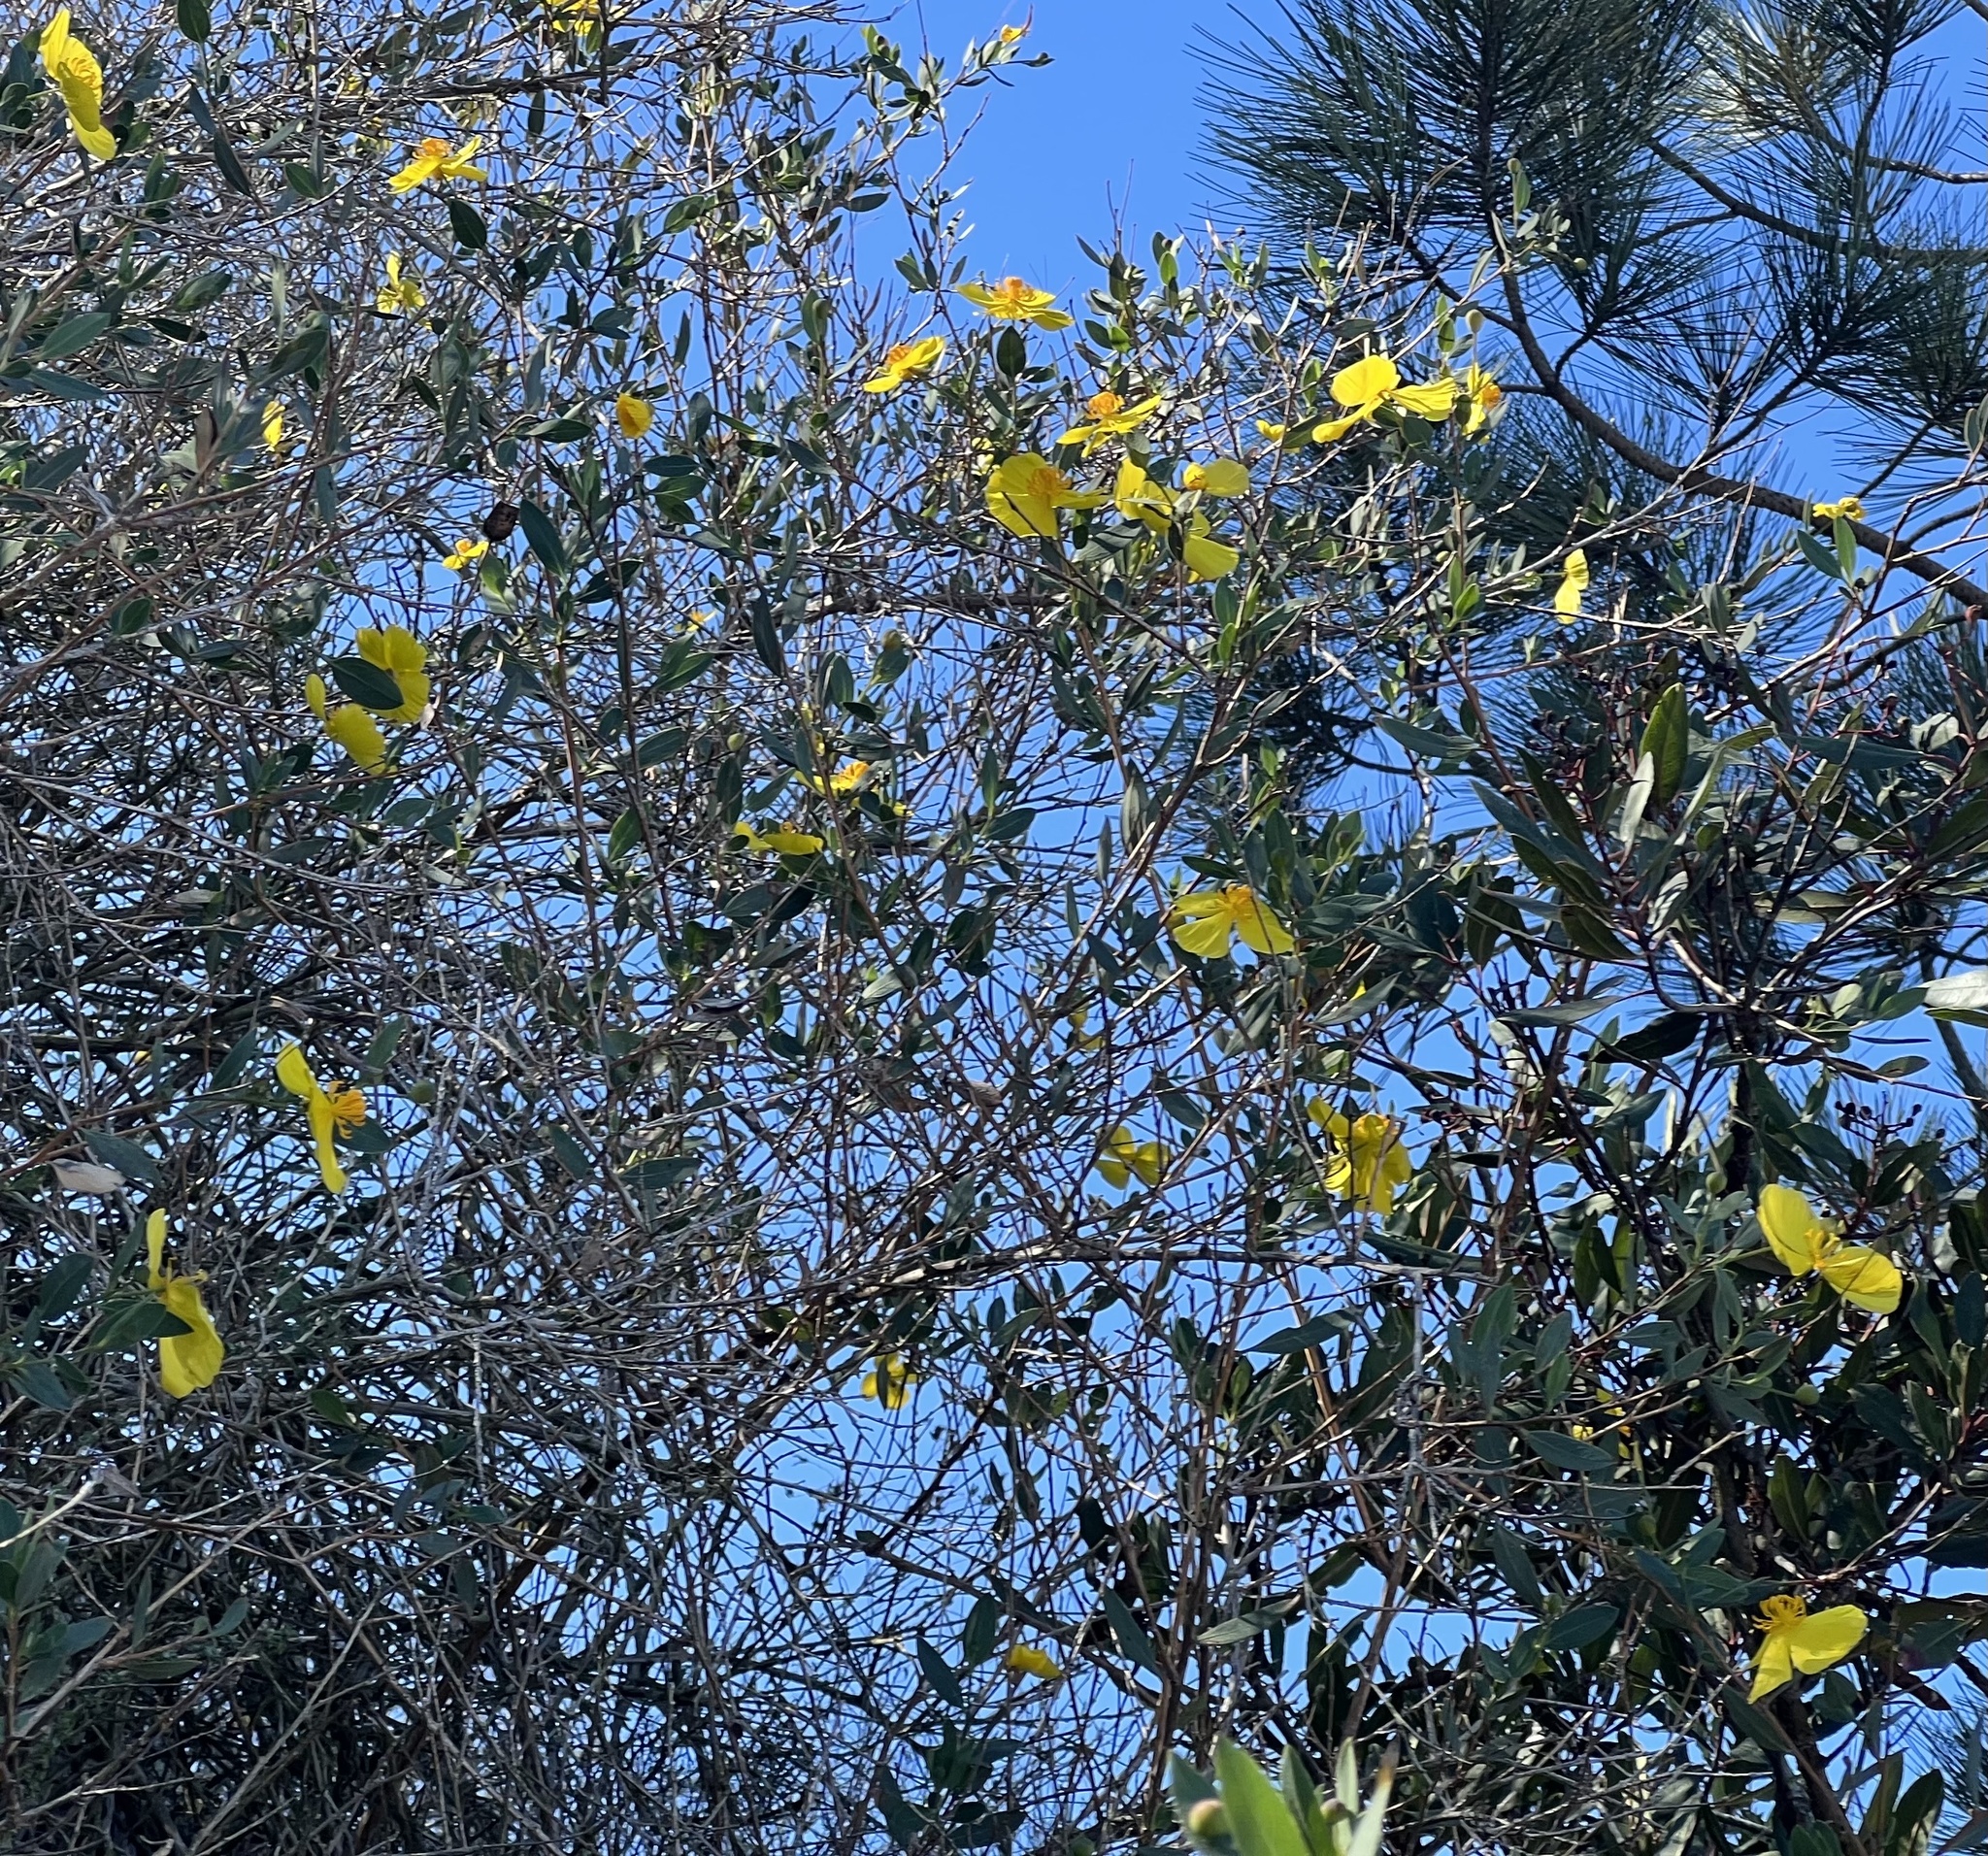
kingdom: Plantae
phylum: Tracheophyta
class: Magnoliopsida
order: Ranunculales
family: Papaveraceae
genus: Dendromecon
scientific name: Dendromecon rigida
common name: Tree poppy
